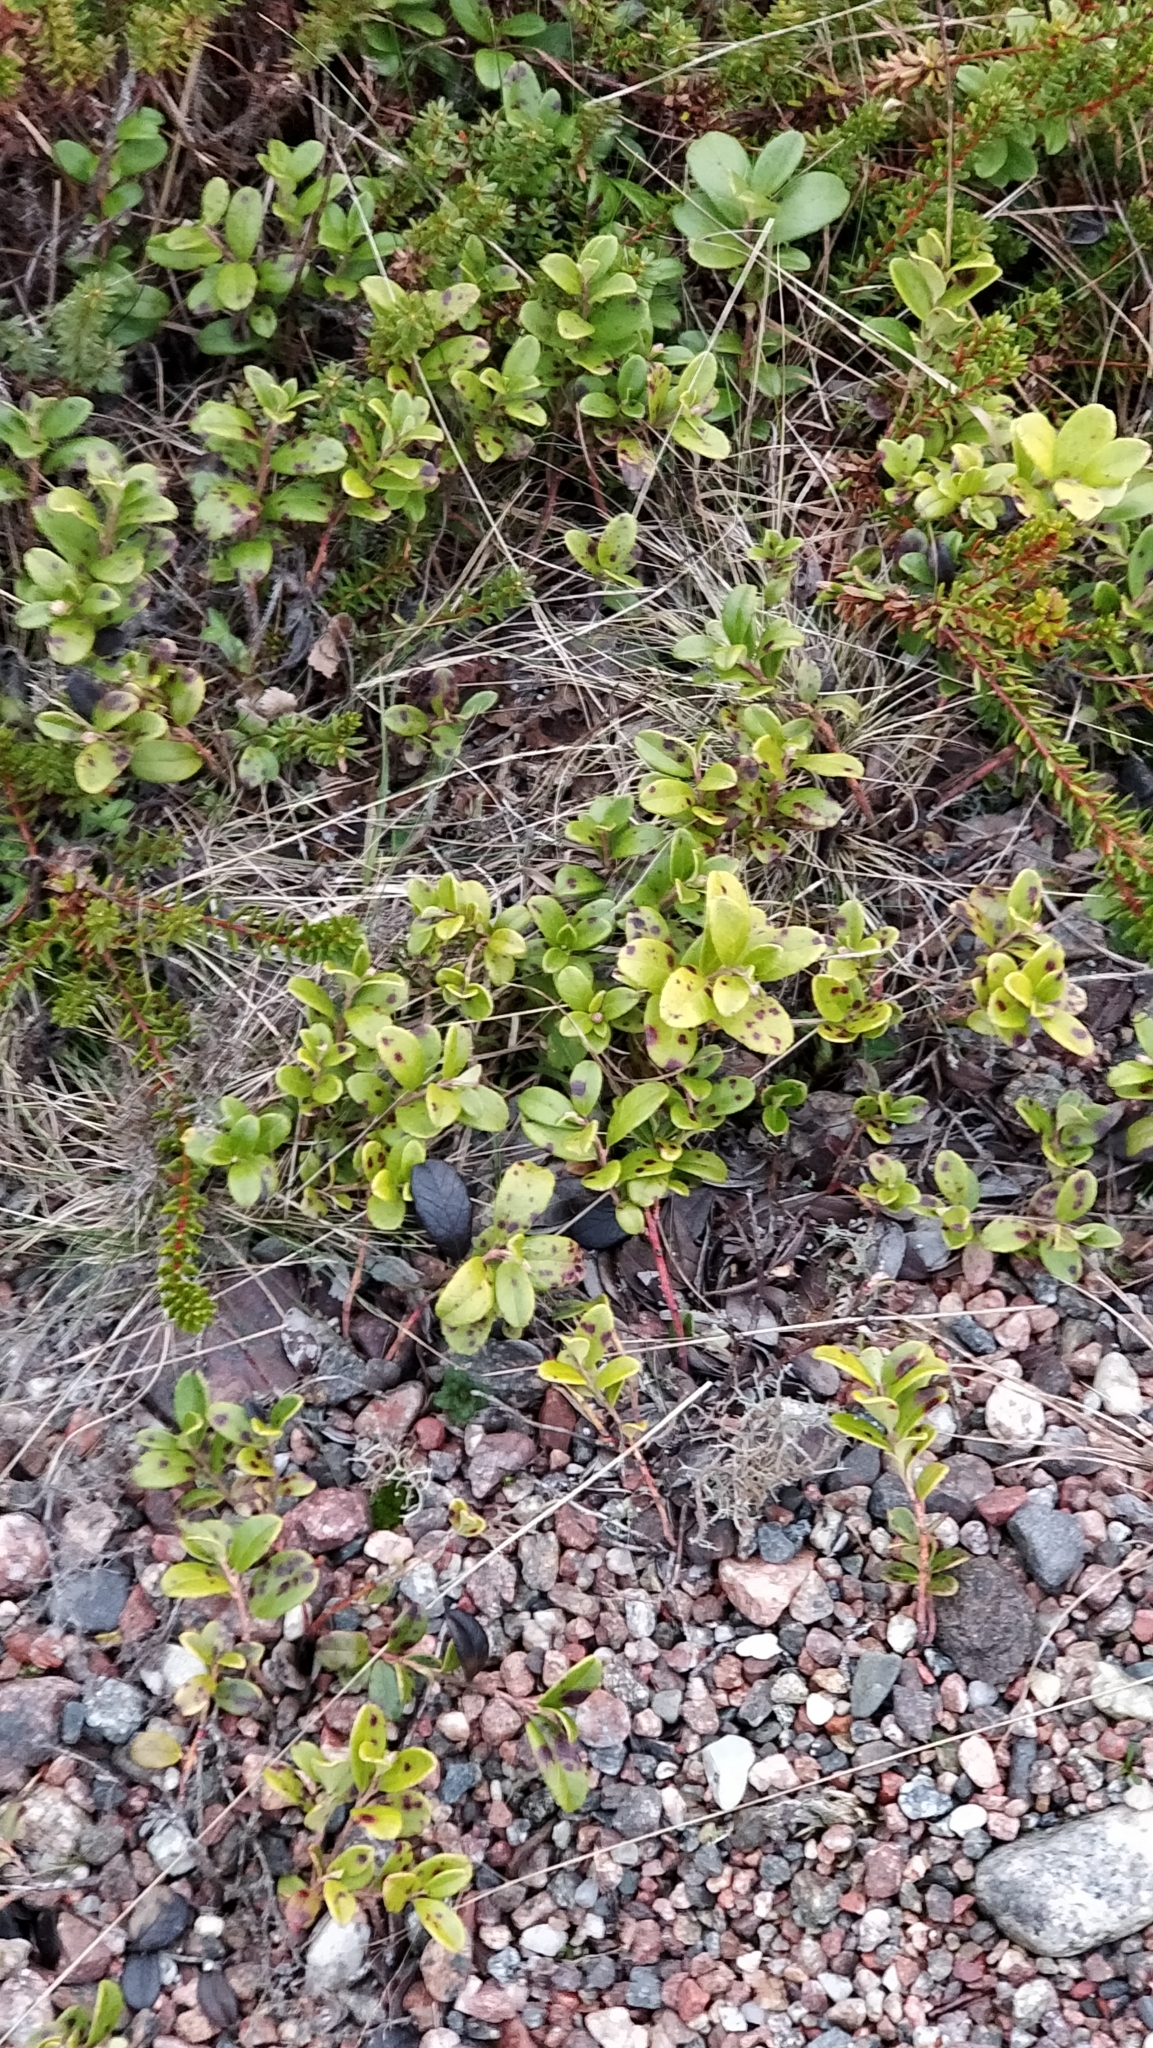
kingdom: Plantae
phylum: Tracheophyta
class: Magnoliopsida
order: Ericales
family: Ericaceae
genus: Vaccinium
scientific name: Vaccinium vitis-idaea
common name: Cowberry
